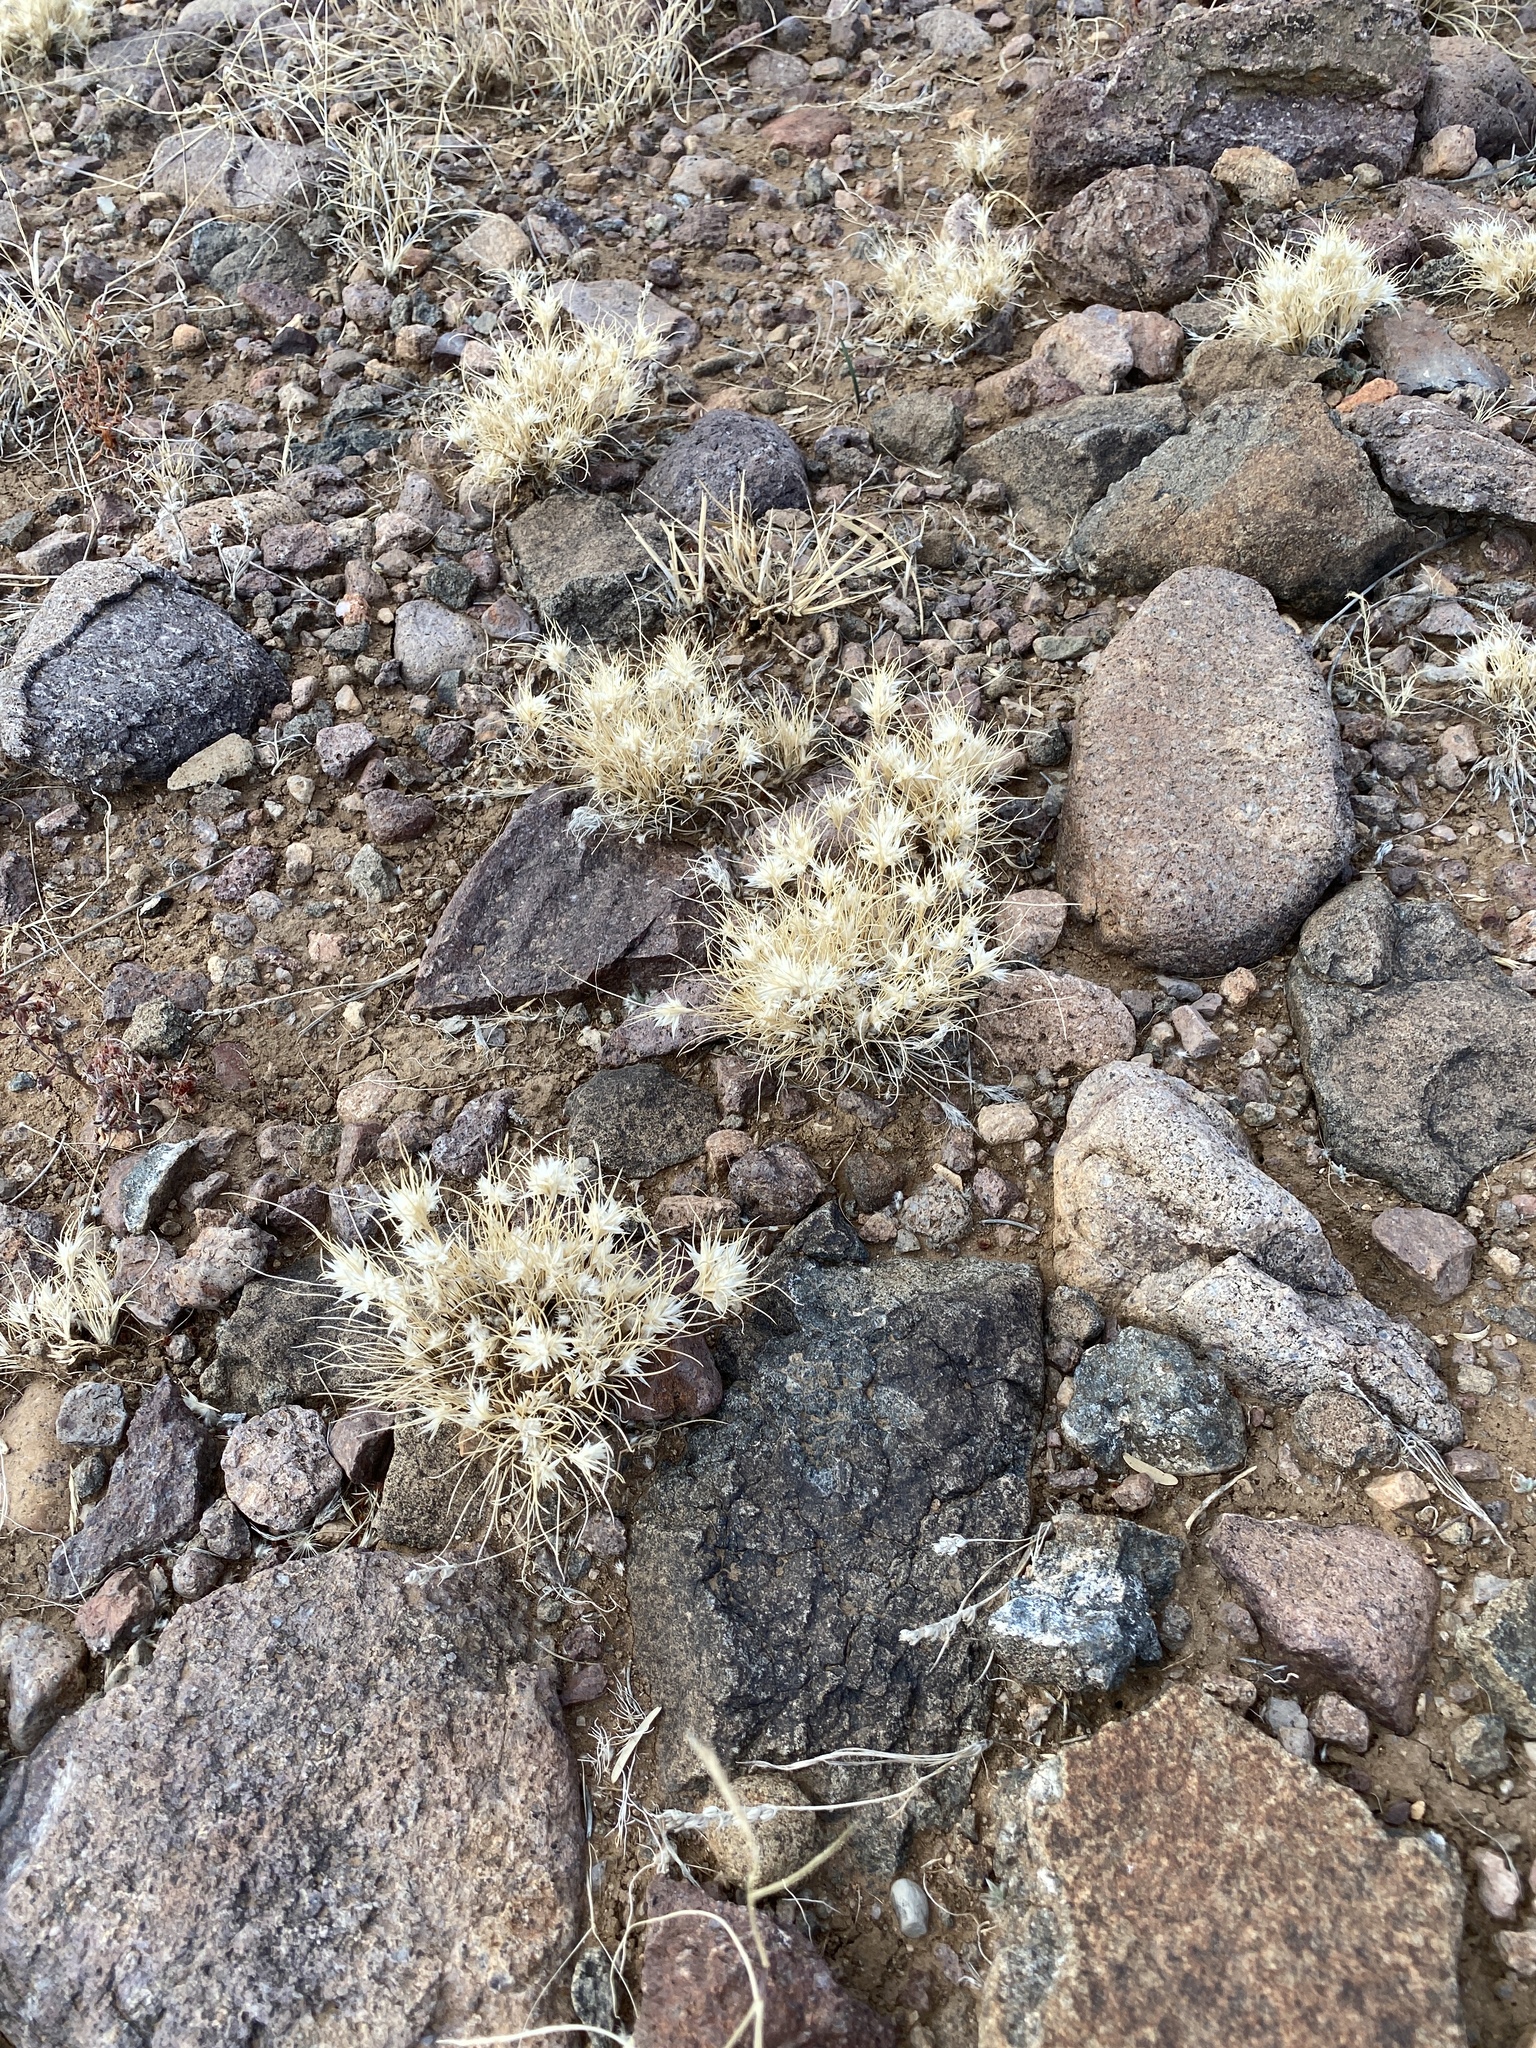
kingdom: Plantae
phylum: Tracheophyta
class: Liliopsida
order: Poales
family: Poaceae
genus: Dasyochloa
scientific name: Dasyochloa pulchella
